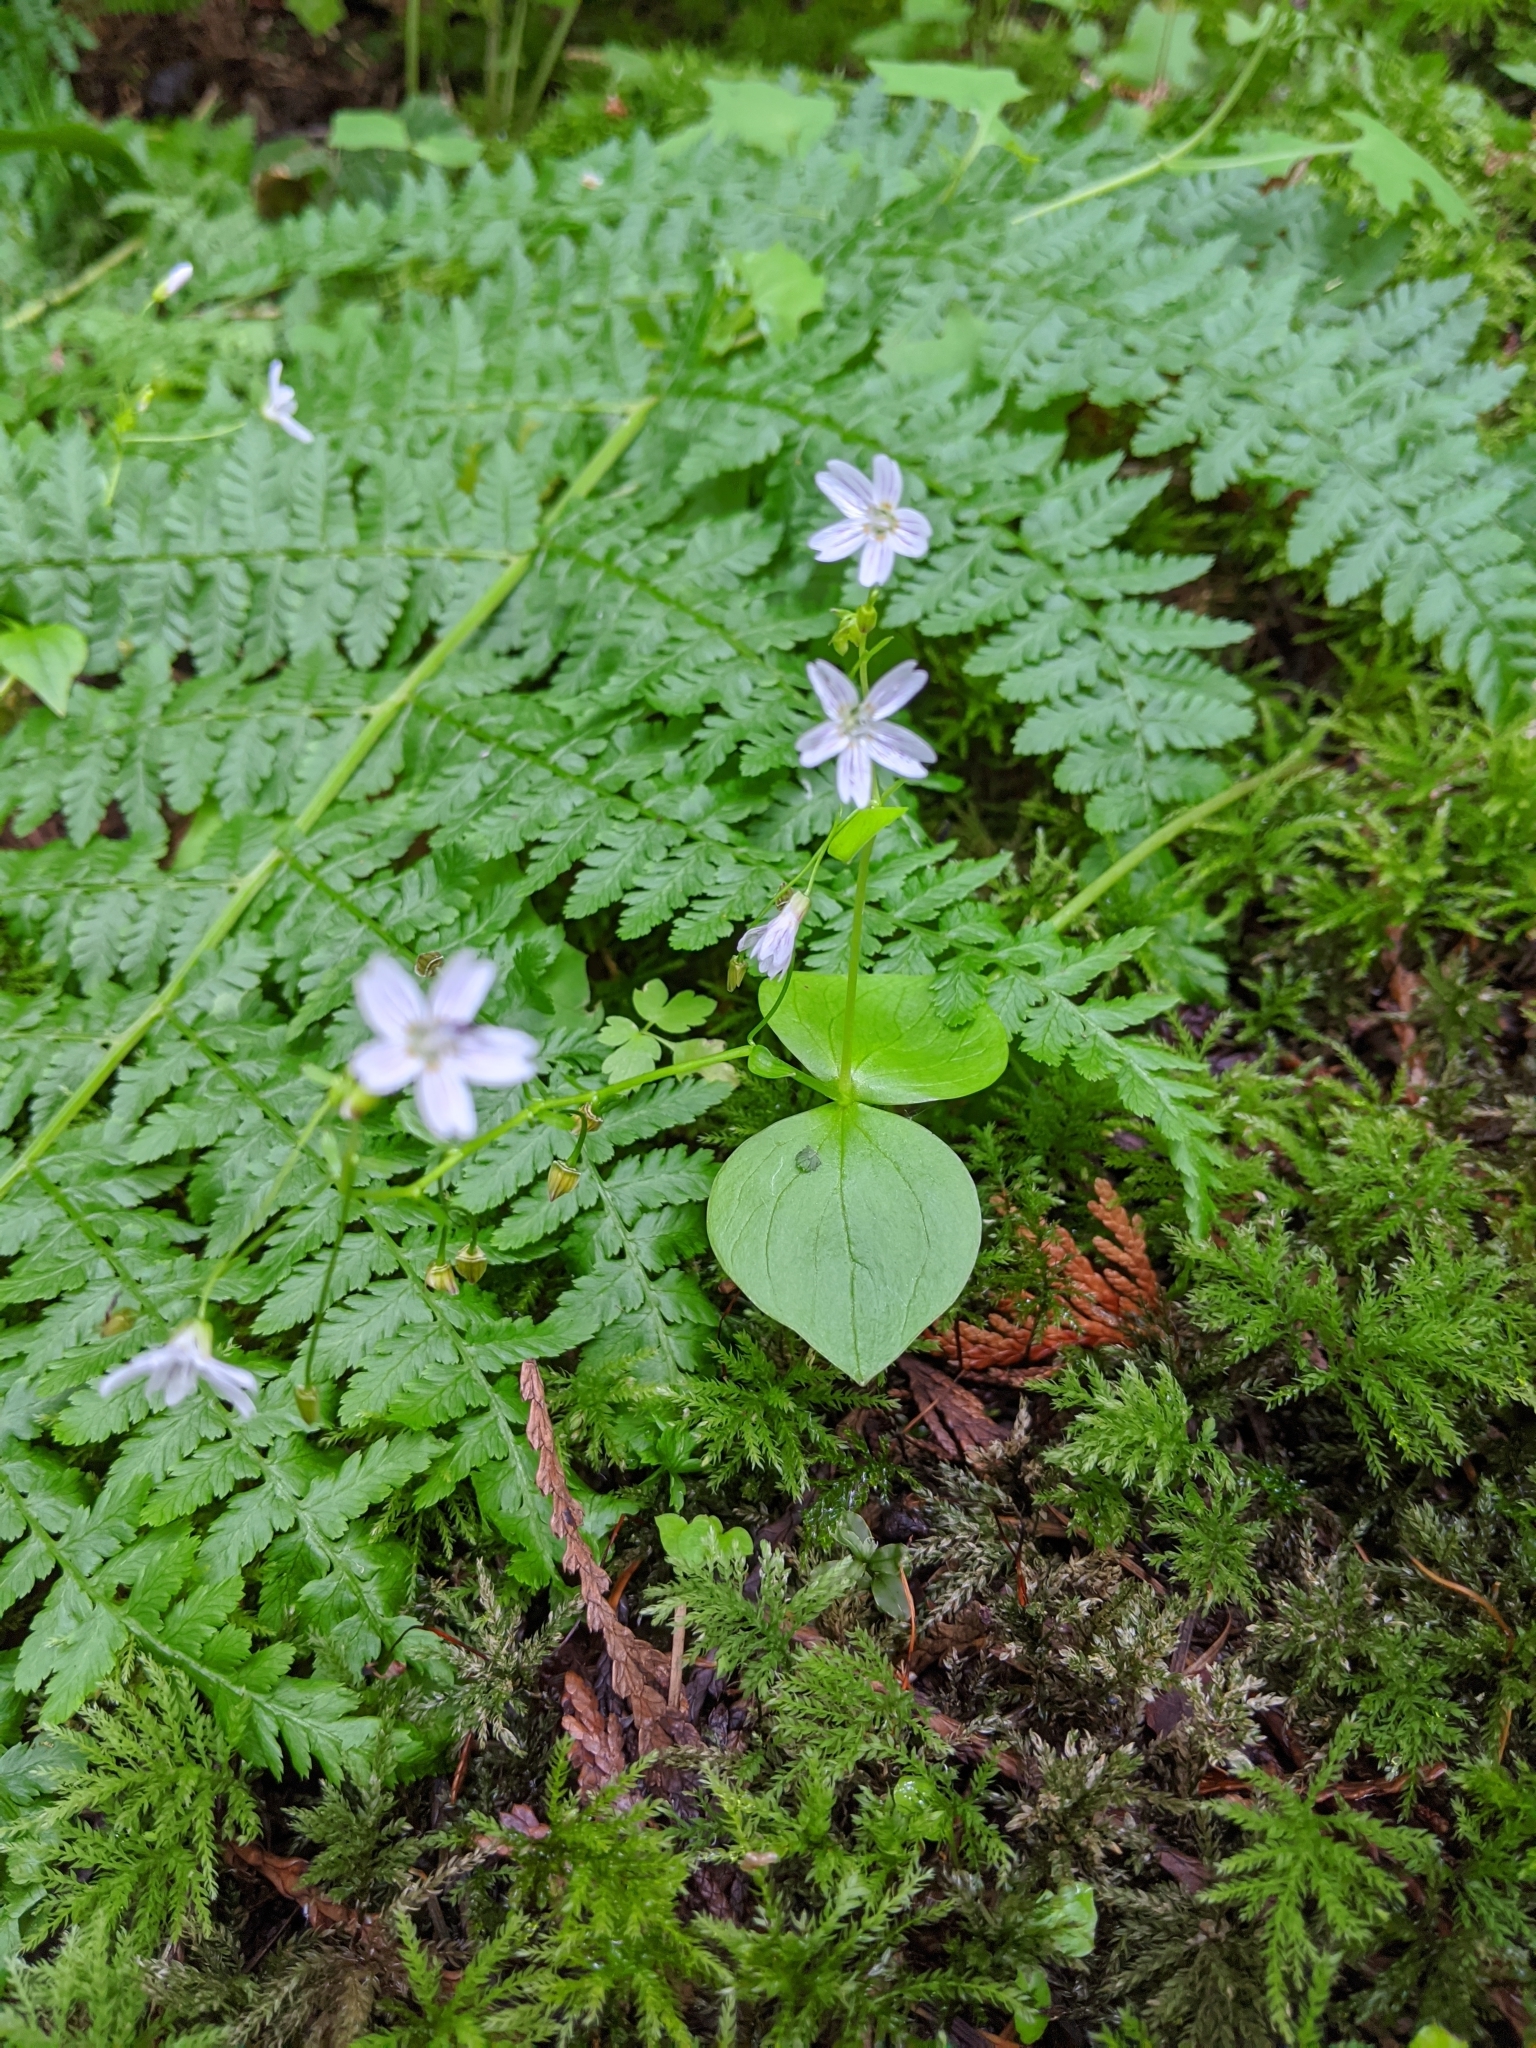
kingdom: Plantae
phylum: Tracheophyta
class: Magnoliopsida
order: Caryophyllales
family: Montiaceae
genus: Claytonia
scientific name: Claytonia sibirica
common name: Pink purslane
